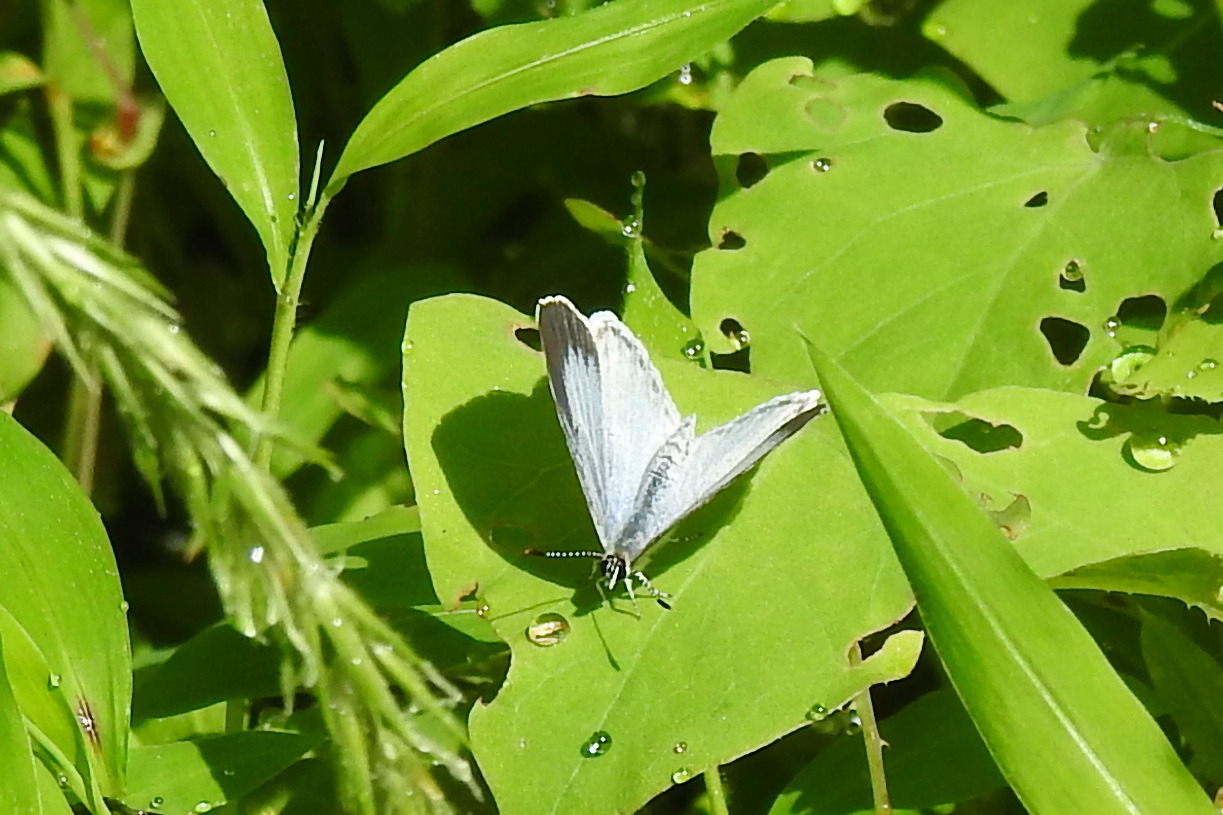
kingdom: Animalia
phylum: Arthropoda
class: Insecta
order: Lepidoptera
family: Lycaenidae
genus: Cyaniris
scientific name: Cyaniris neglecta
